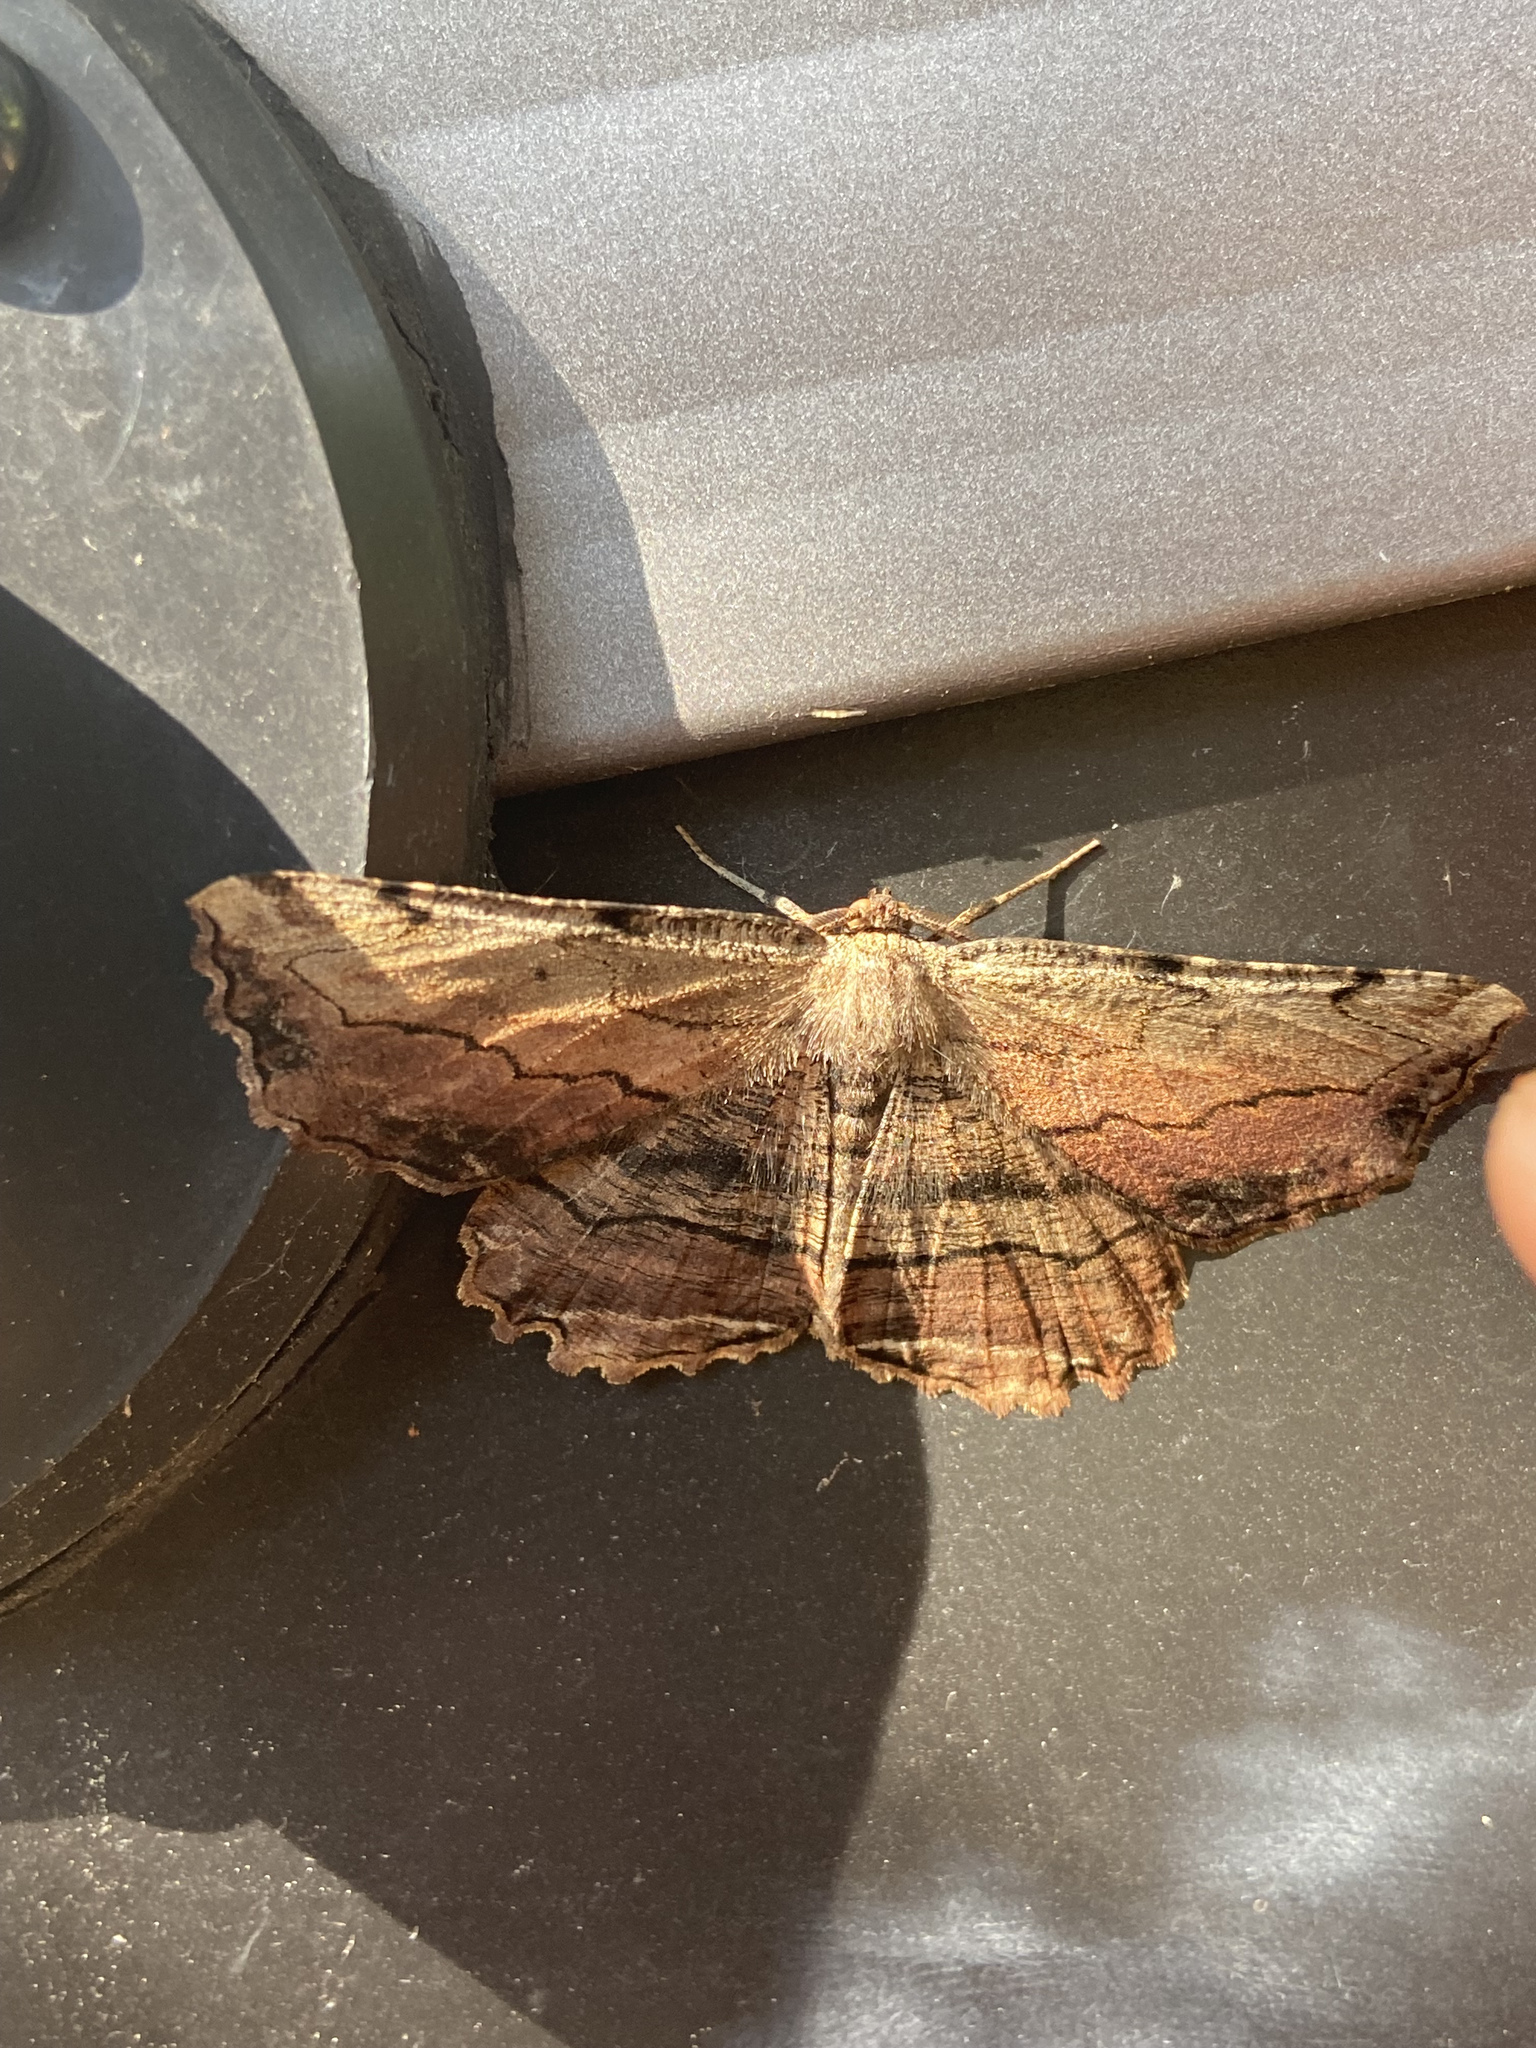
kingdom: Animalia
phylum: Arthropoda
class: Insecta
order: Lepidoptera
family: Geometridae
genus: Lytrosis
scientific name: Lytrosis unitaria
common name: Common lytrosis
